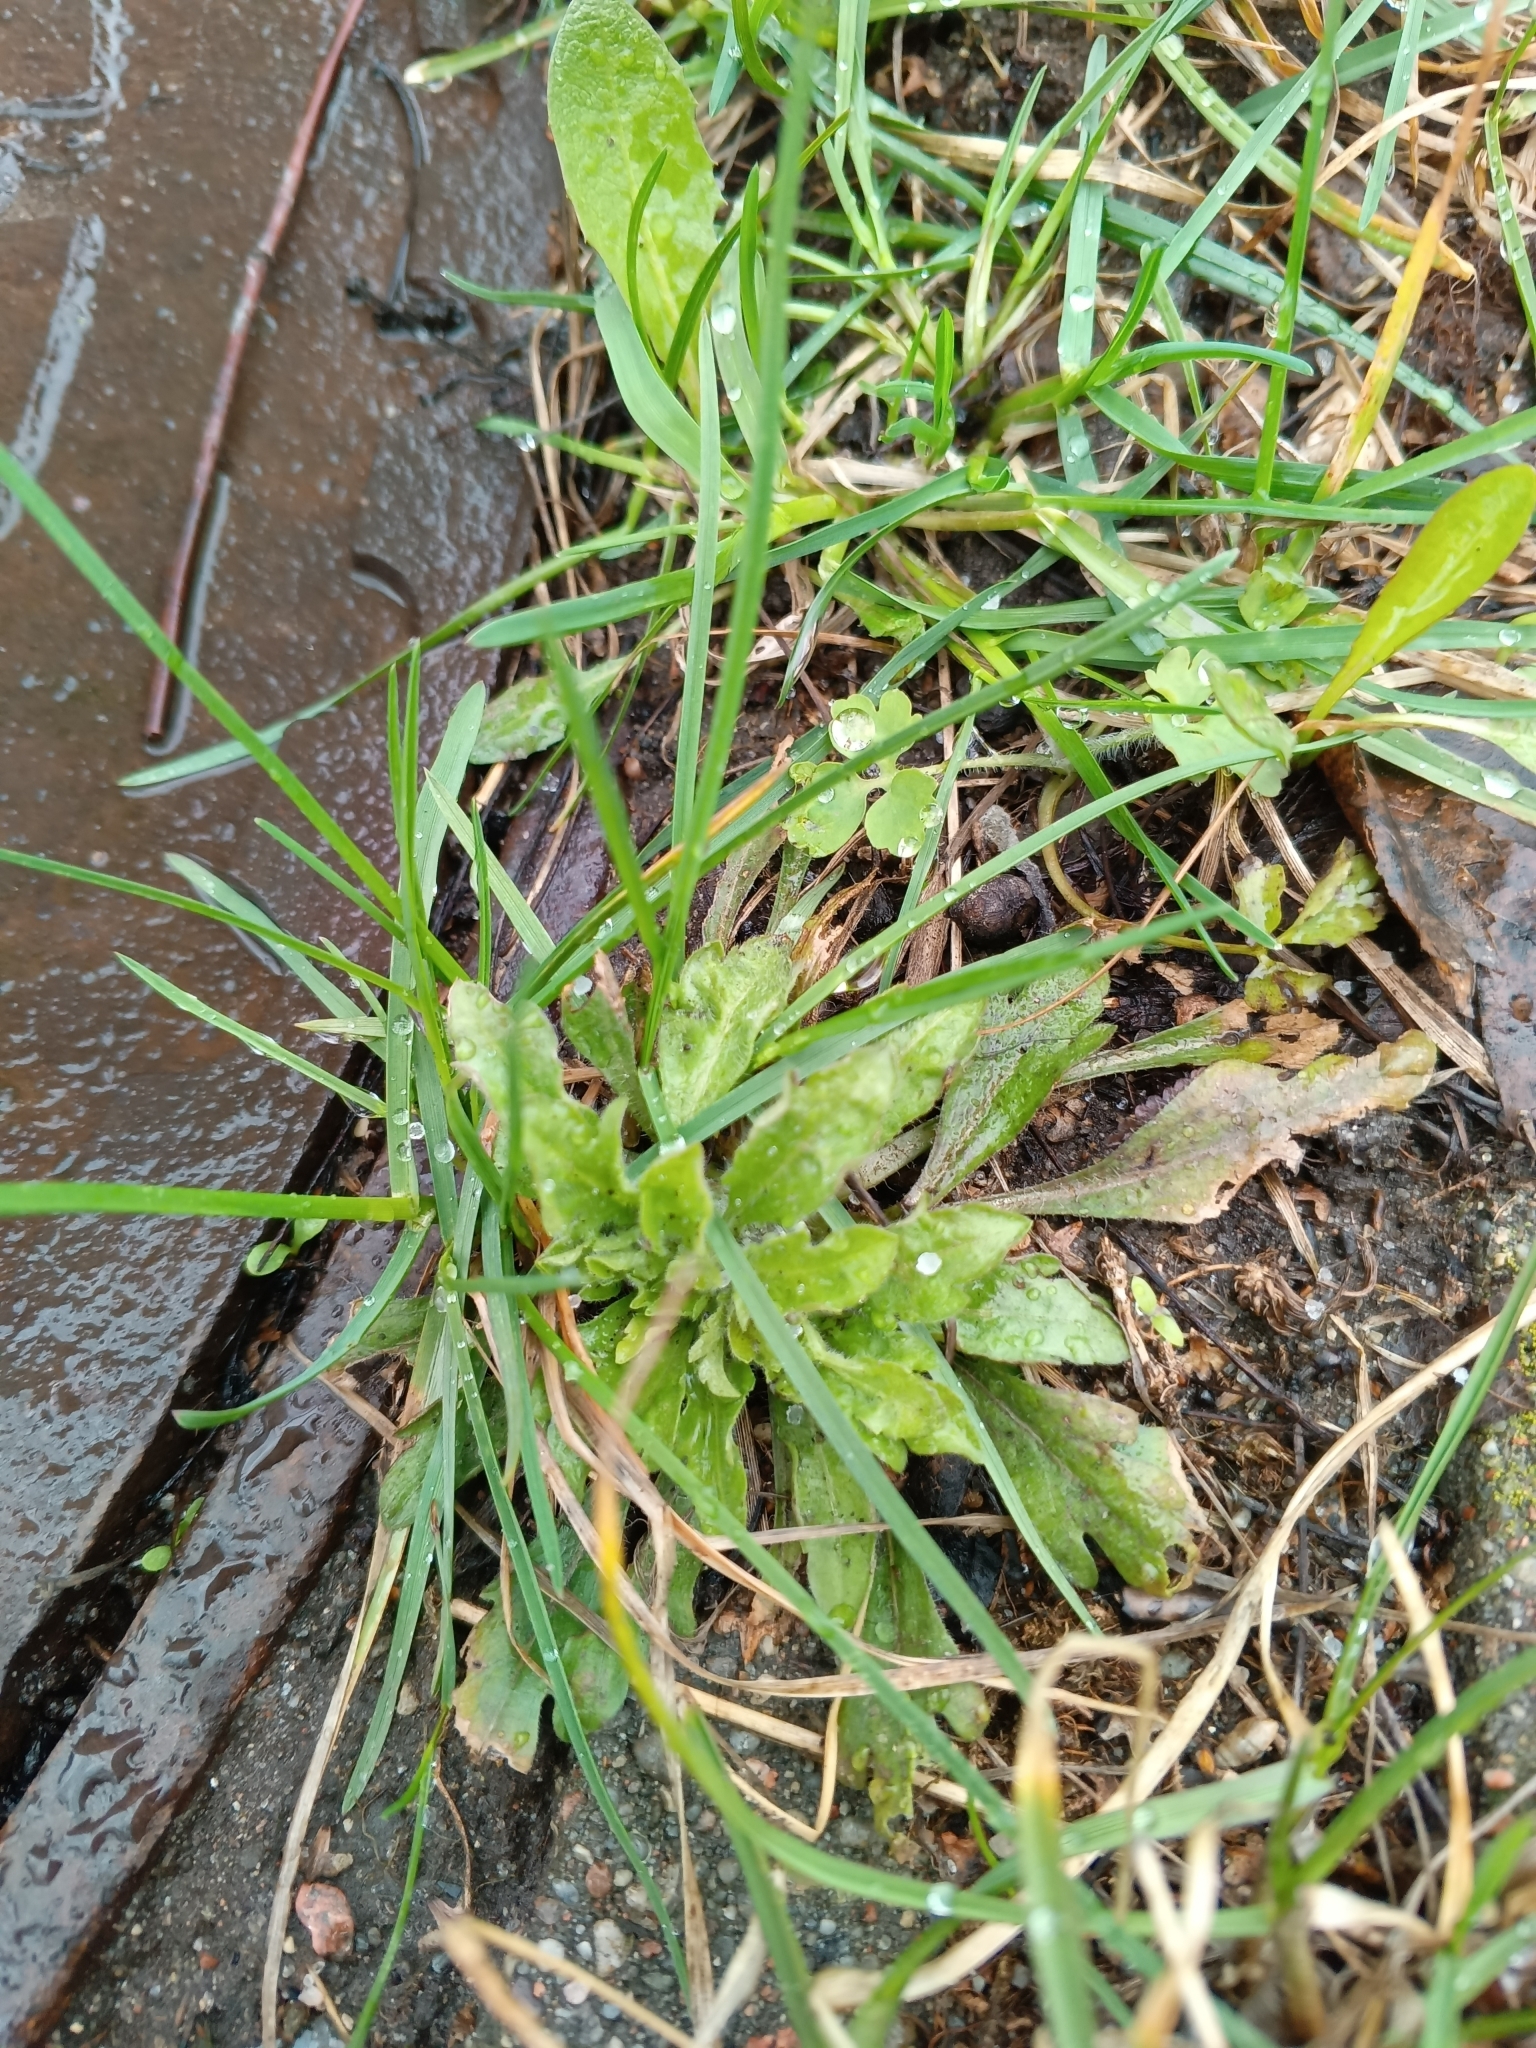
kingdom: Plantae
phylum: Tracheophyta
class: Magnoliopsida
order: Asterales
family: Asteraceae
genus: Erigeron
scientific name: Erigeron canadensis
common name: Canadian fleabane
